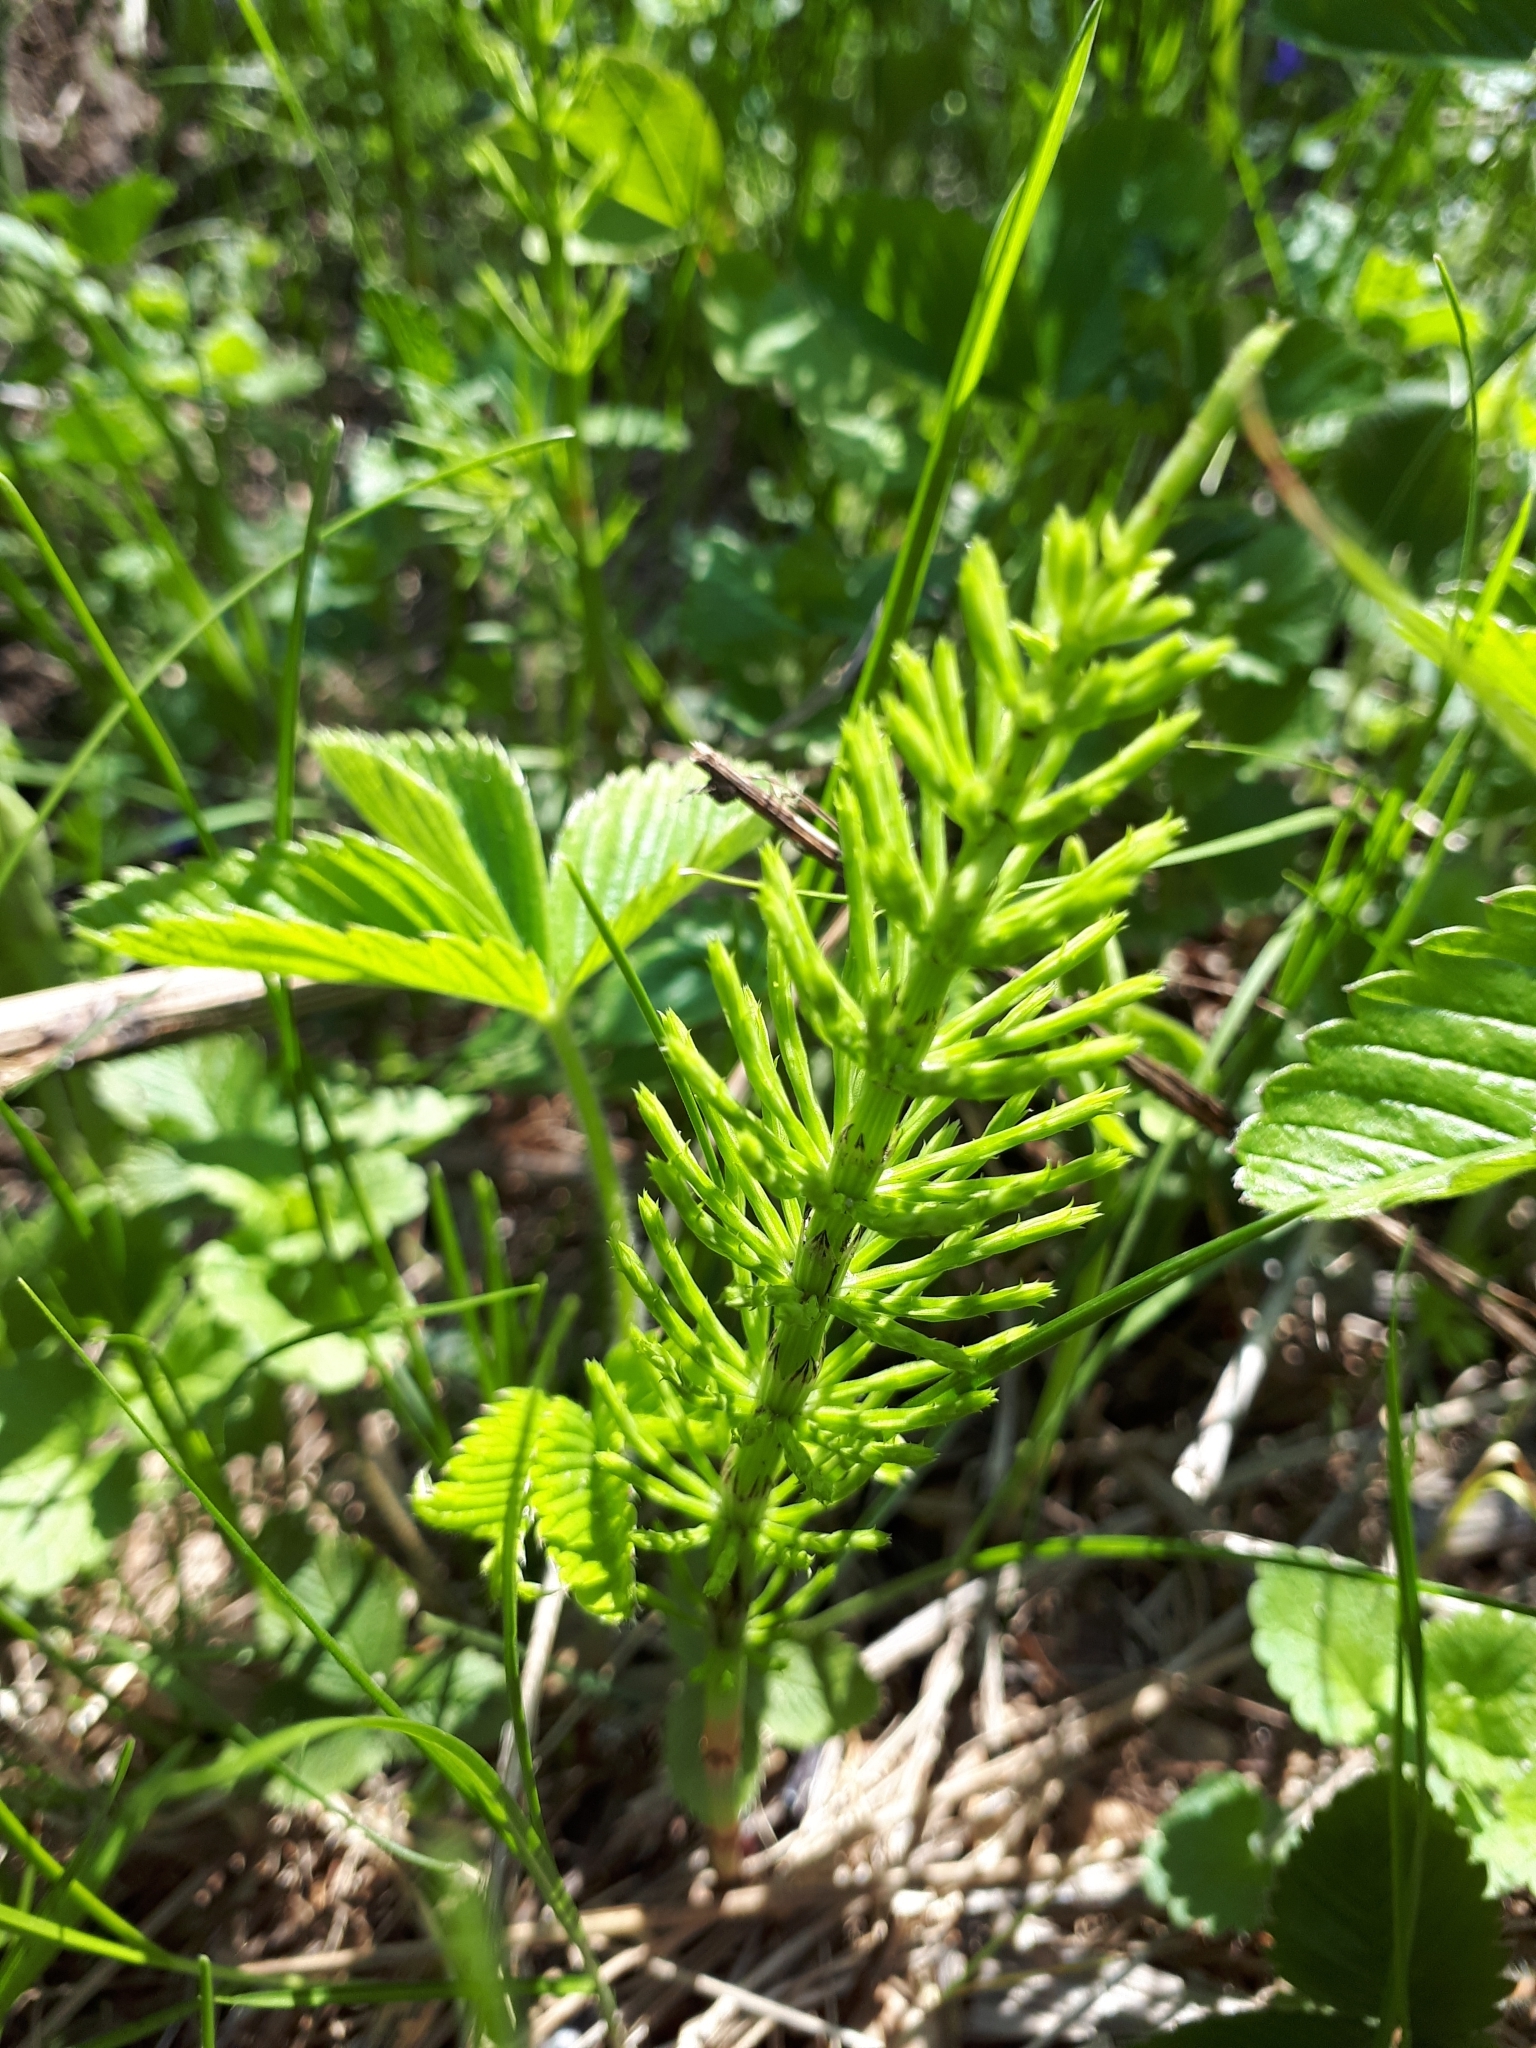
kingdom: Plantae
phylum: Tracheophyta
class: Polypodiopsida
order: Equisetales
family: Equisetaceae
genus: Equisetum
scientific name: Equisetum arvense
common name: Field horsetail
